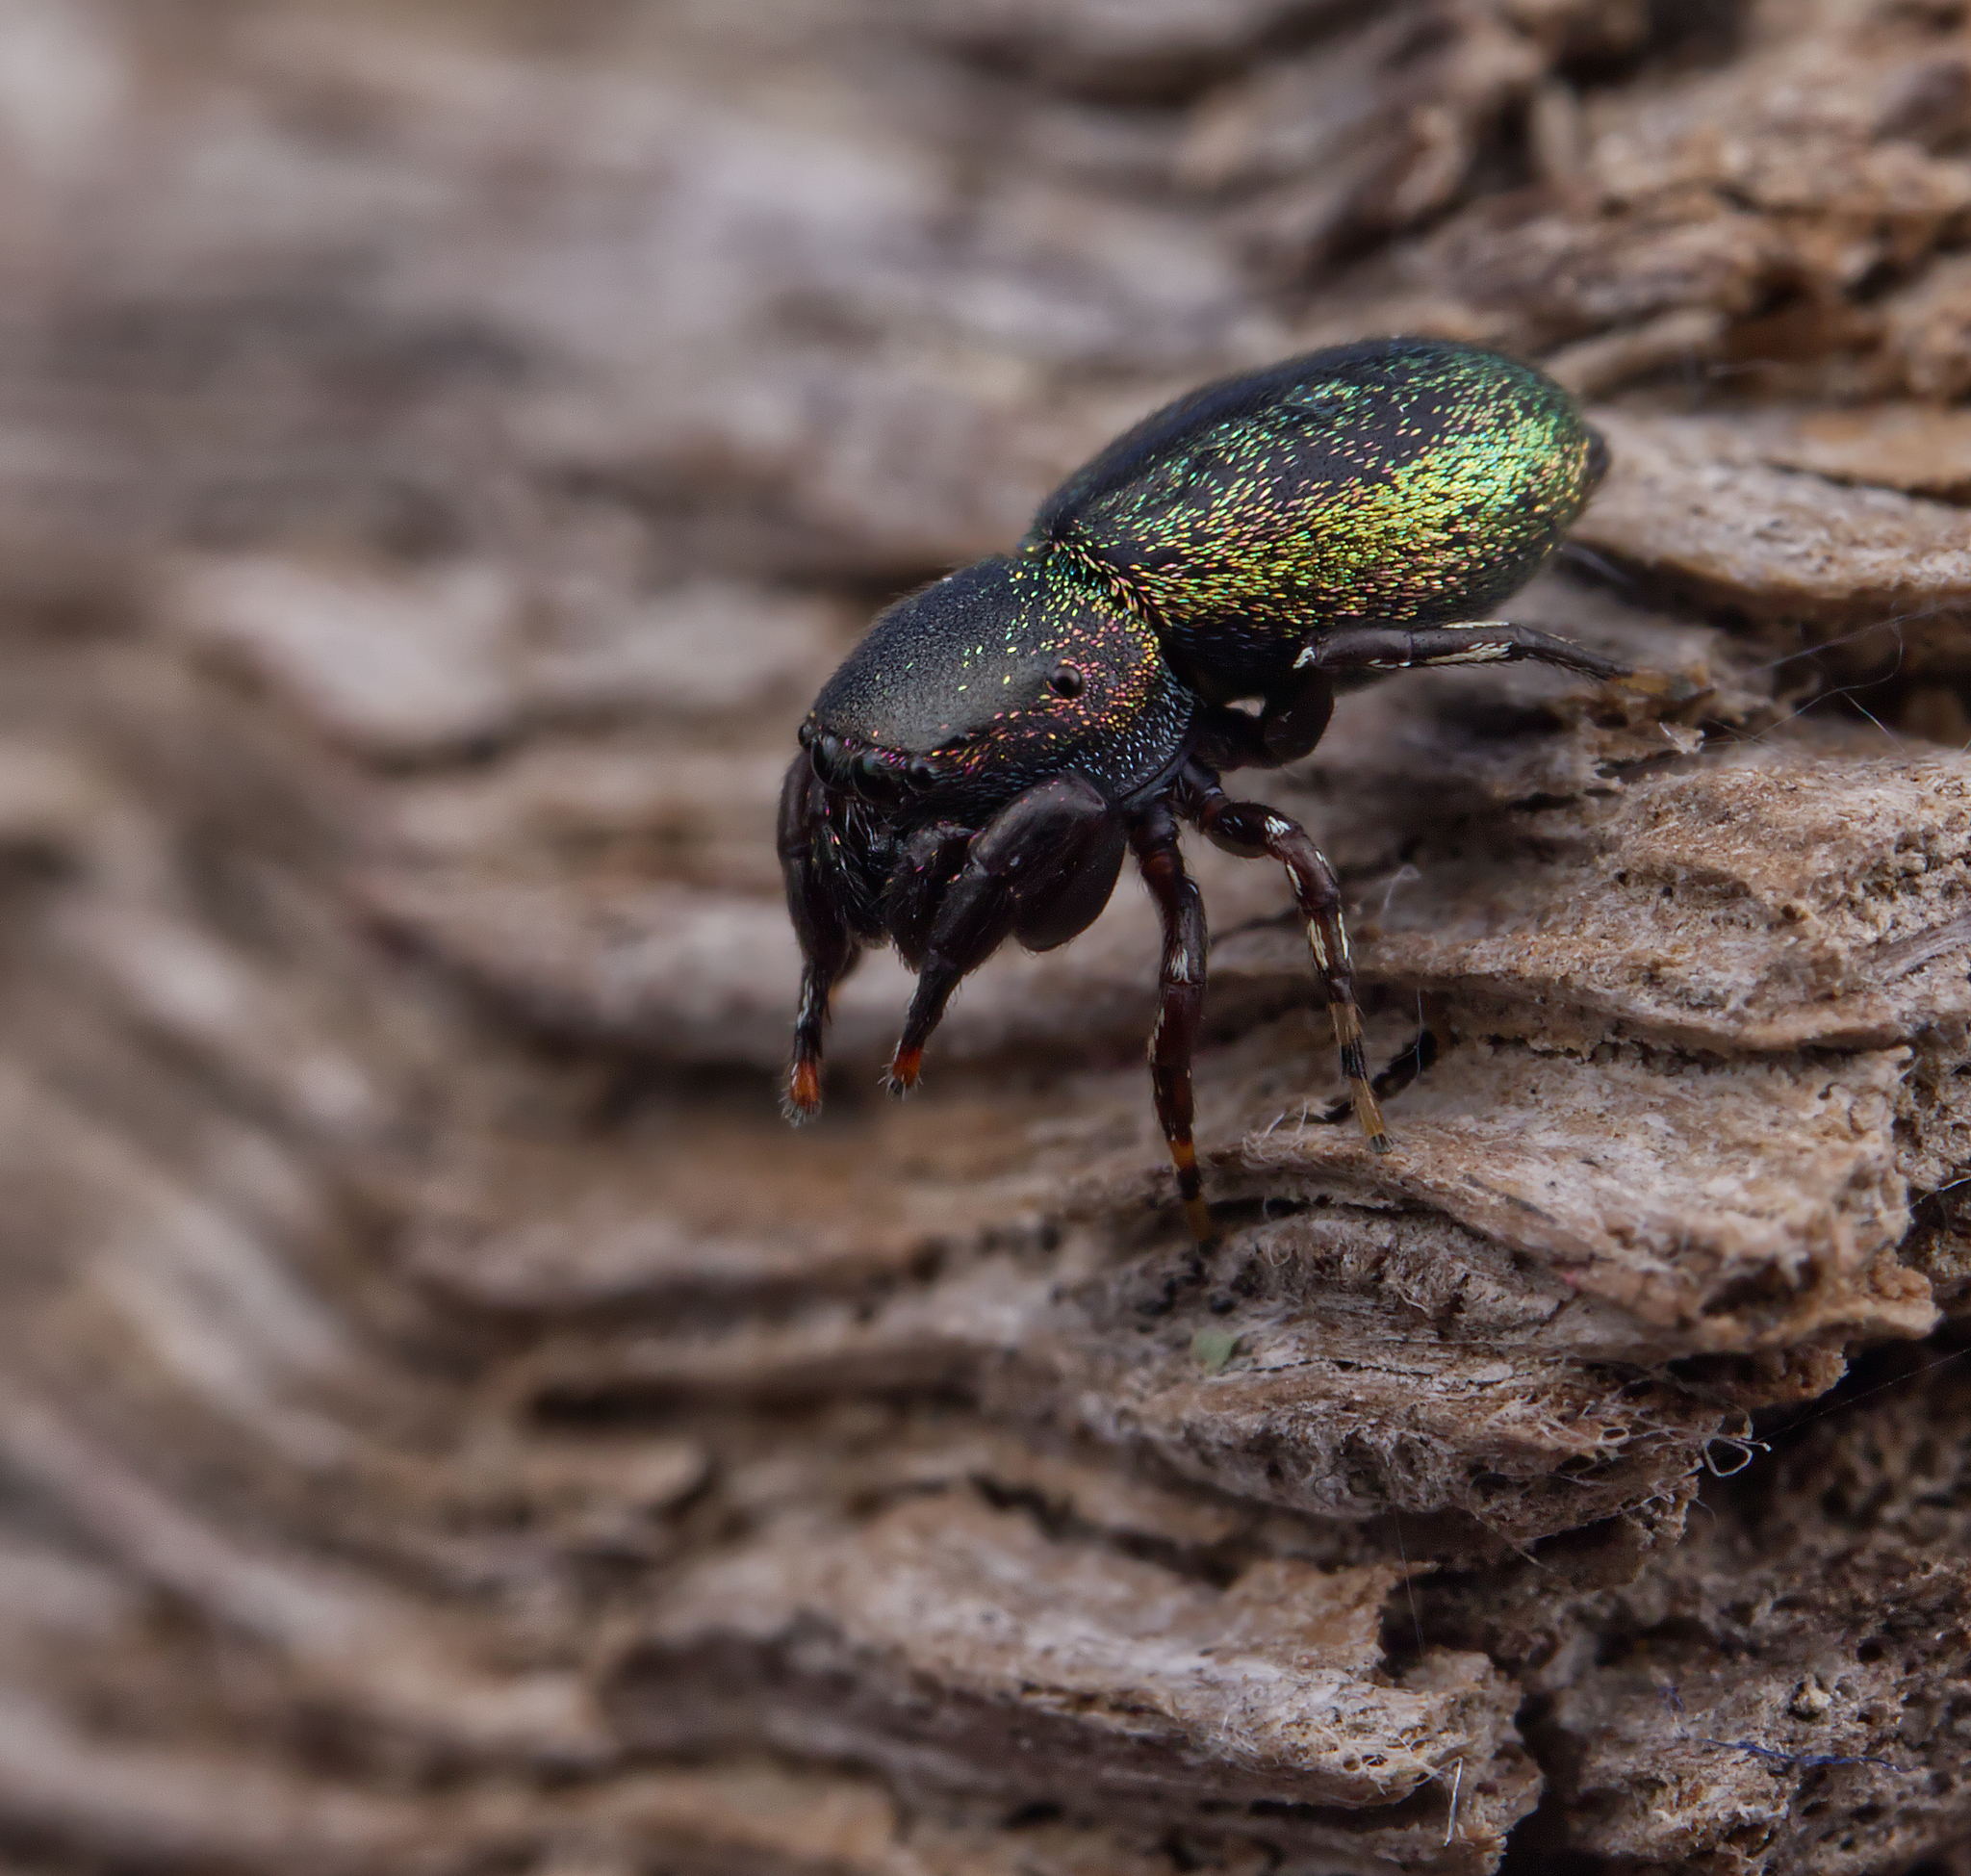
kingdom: Animalia
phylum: Arthropoda
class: Arachnida
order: Araneae
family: Salticidae
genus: Sassacus
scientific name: Sassacus cyaneus
